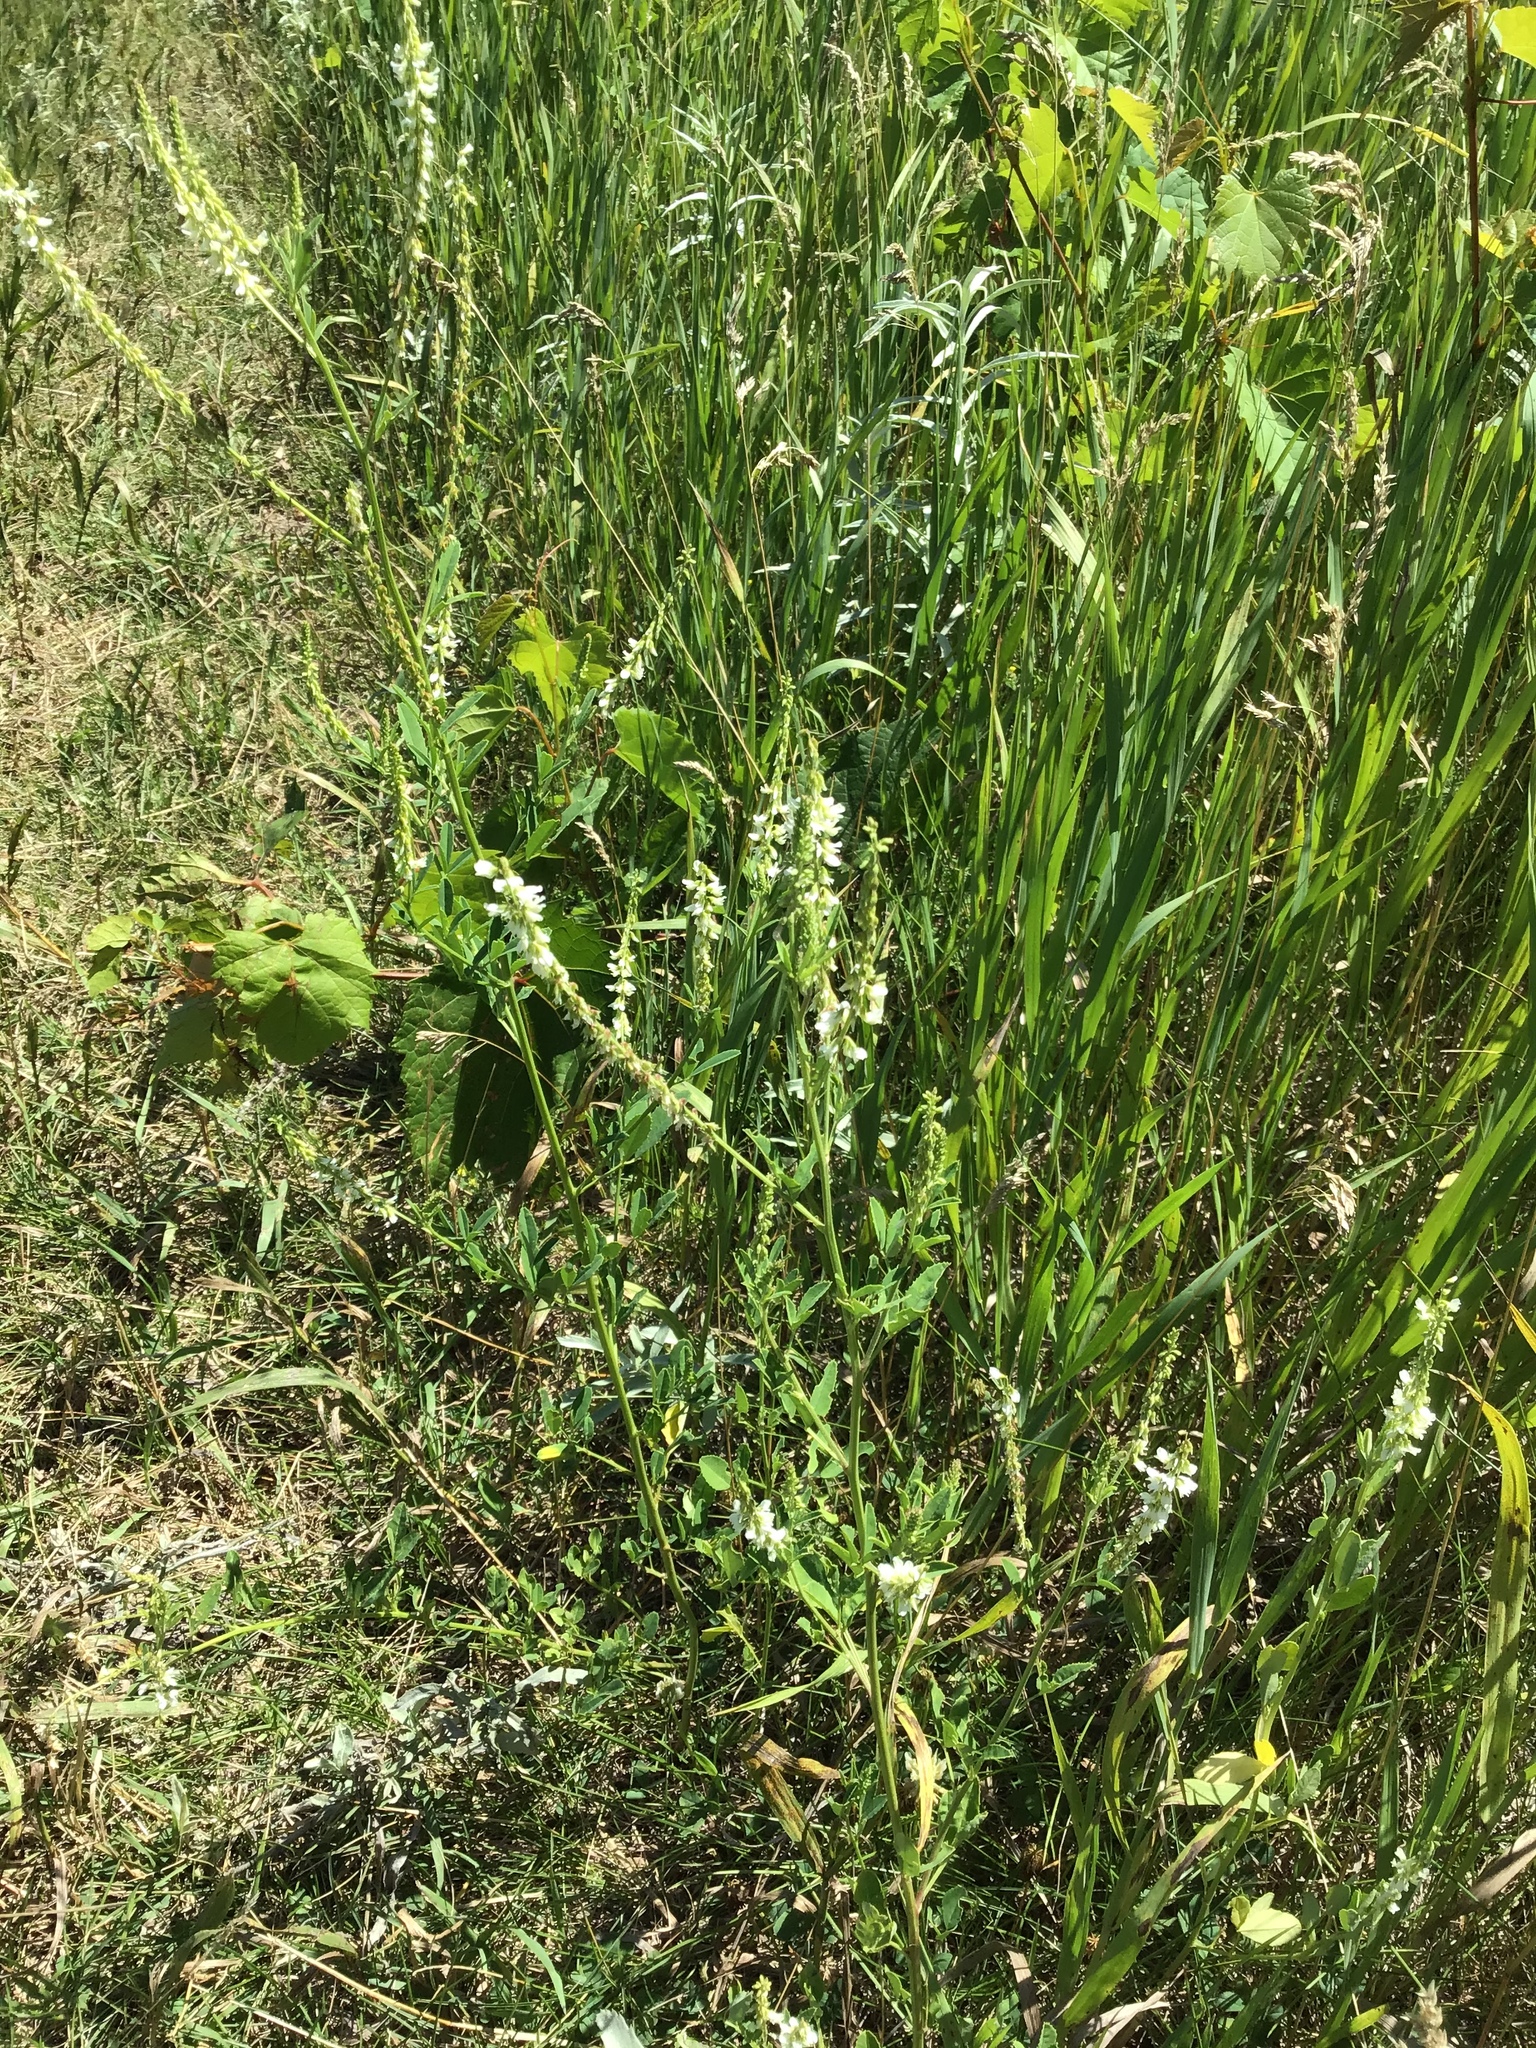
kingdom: Plantae
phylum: Tracheophyta
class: Magnoliopsida
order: Fabales
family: Fabaceae
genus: Melilotus
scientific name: Melilotus albus
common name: White melilot
